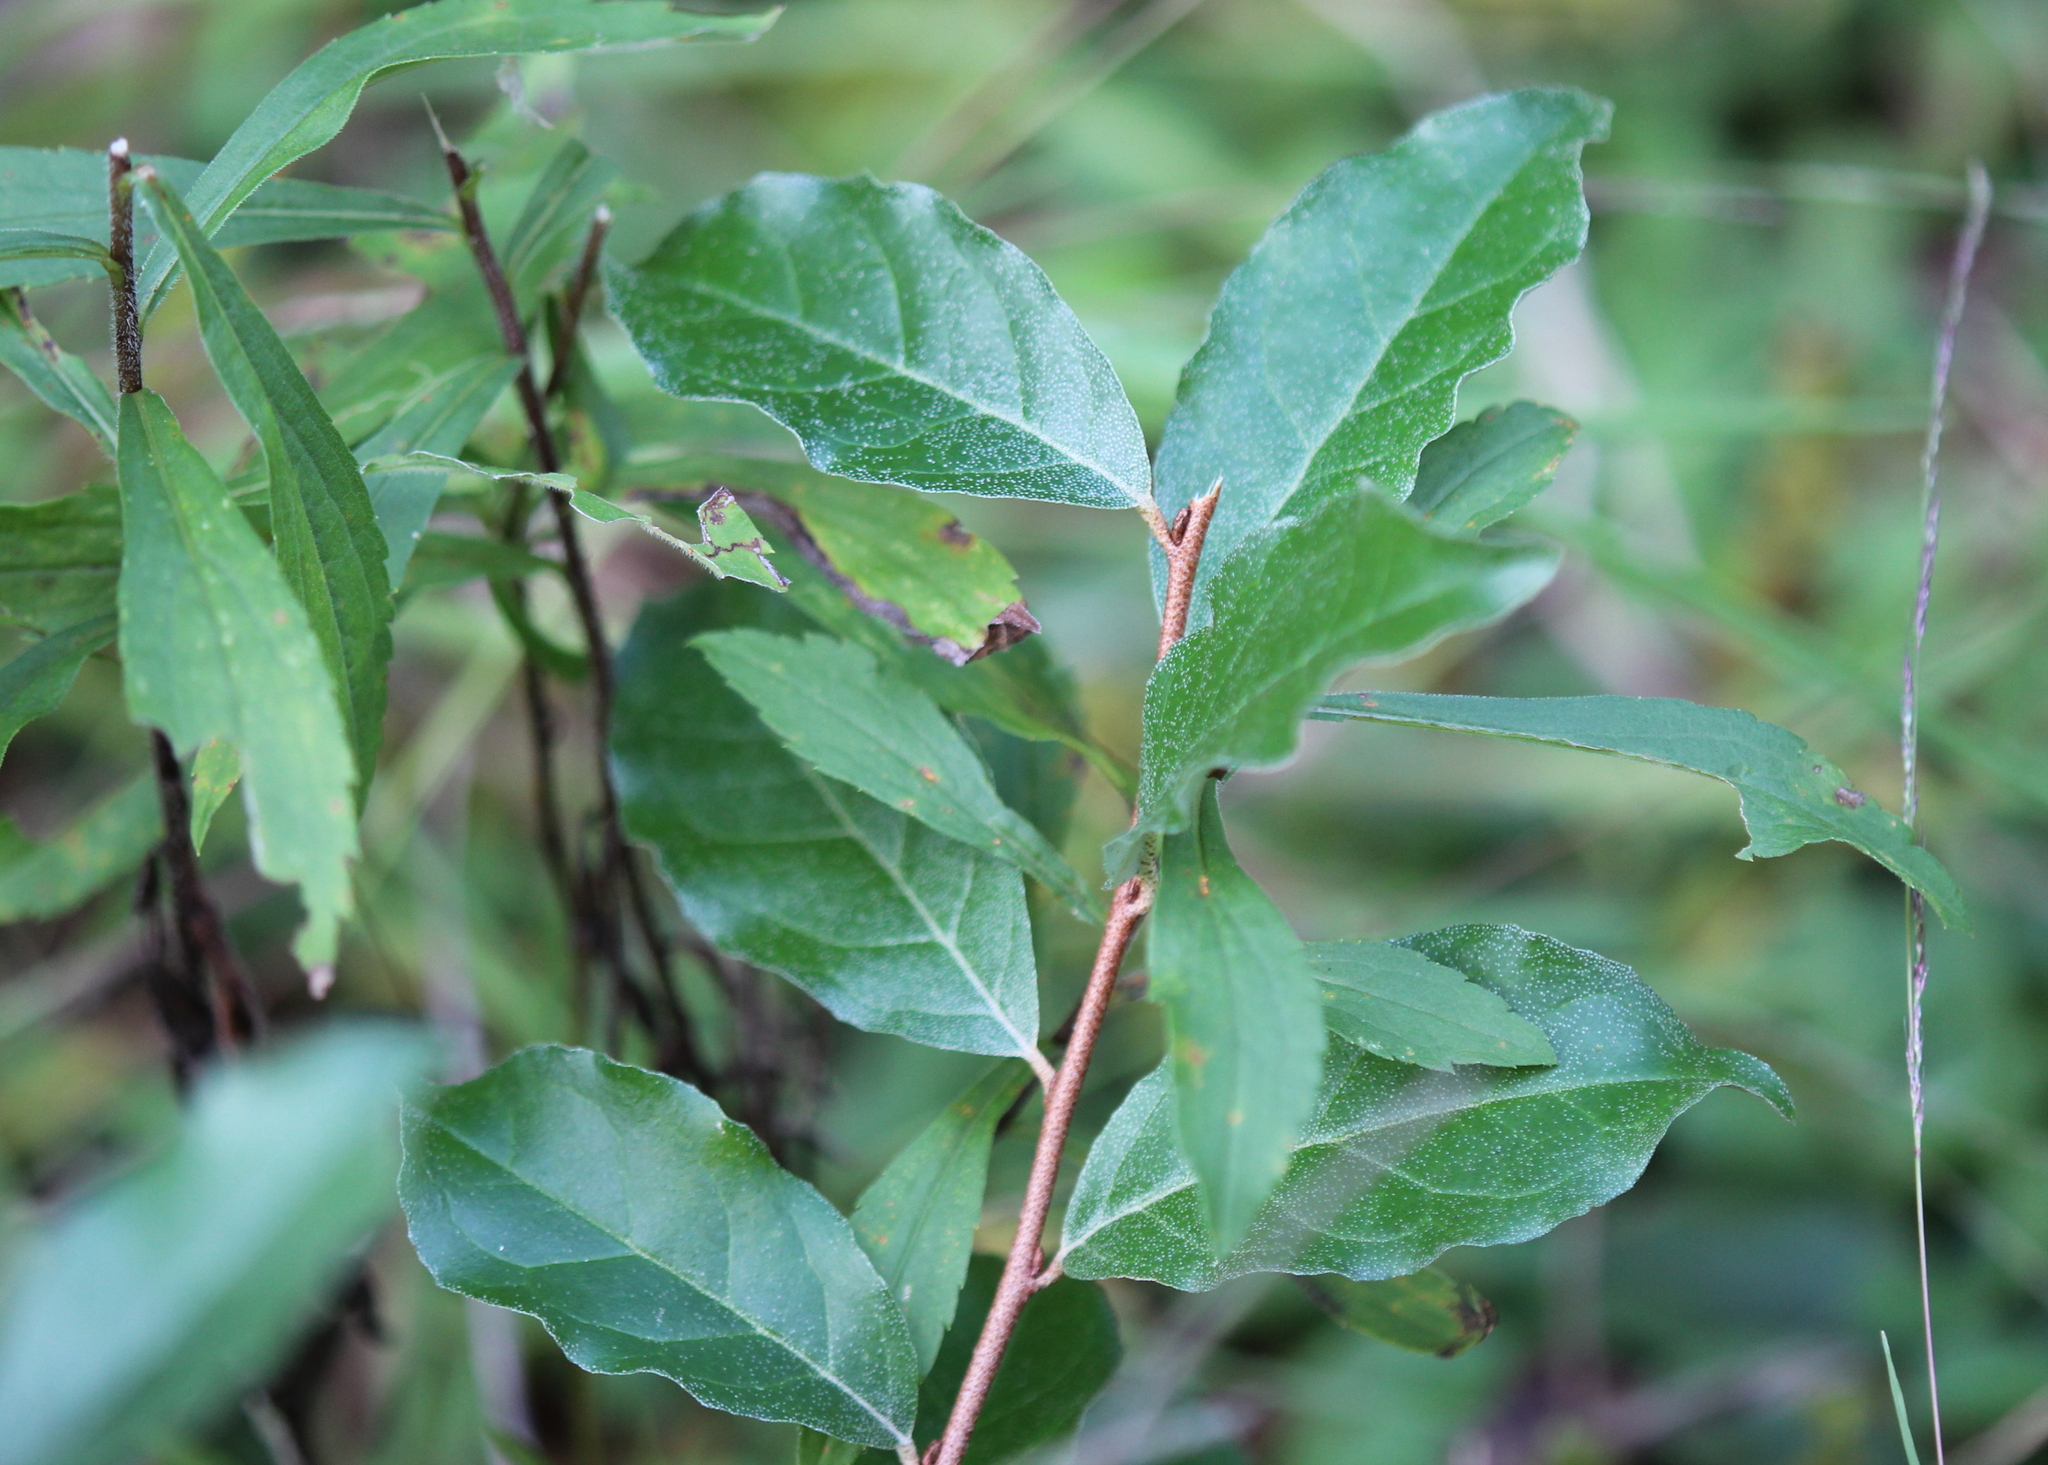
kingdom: Plantae
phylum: Tracheophyta
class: Magnoliopsida
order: Rosales
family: Elaeagnaceae
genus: Elaeagnus
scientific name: Elaeagnus umbellata
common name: Autumn olive
